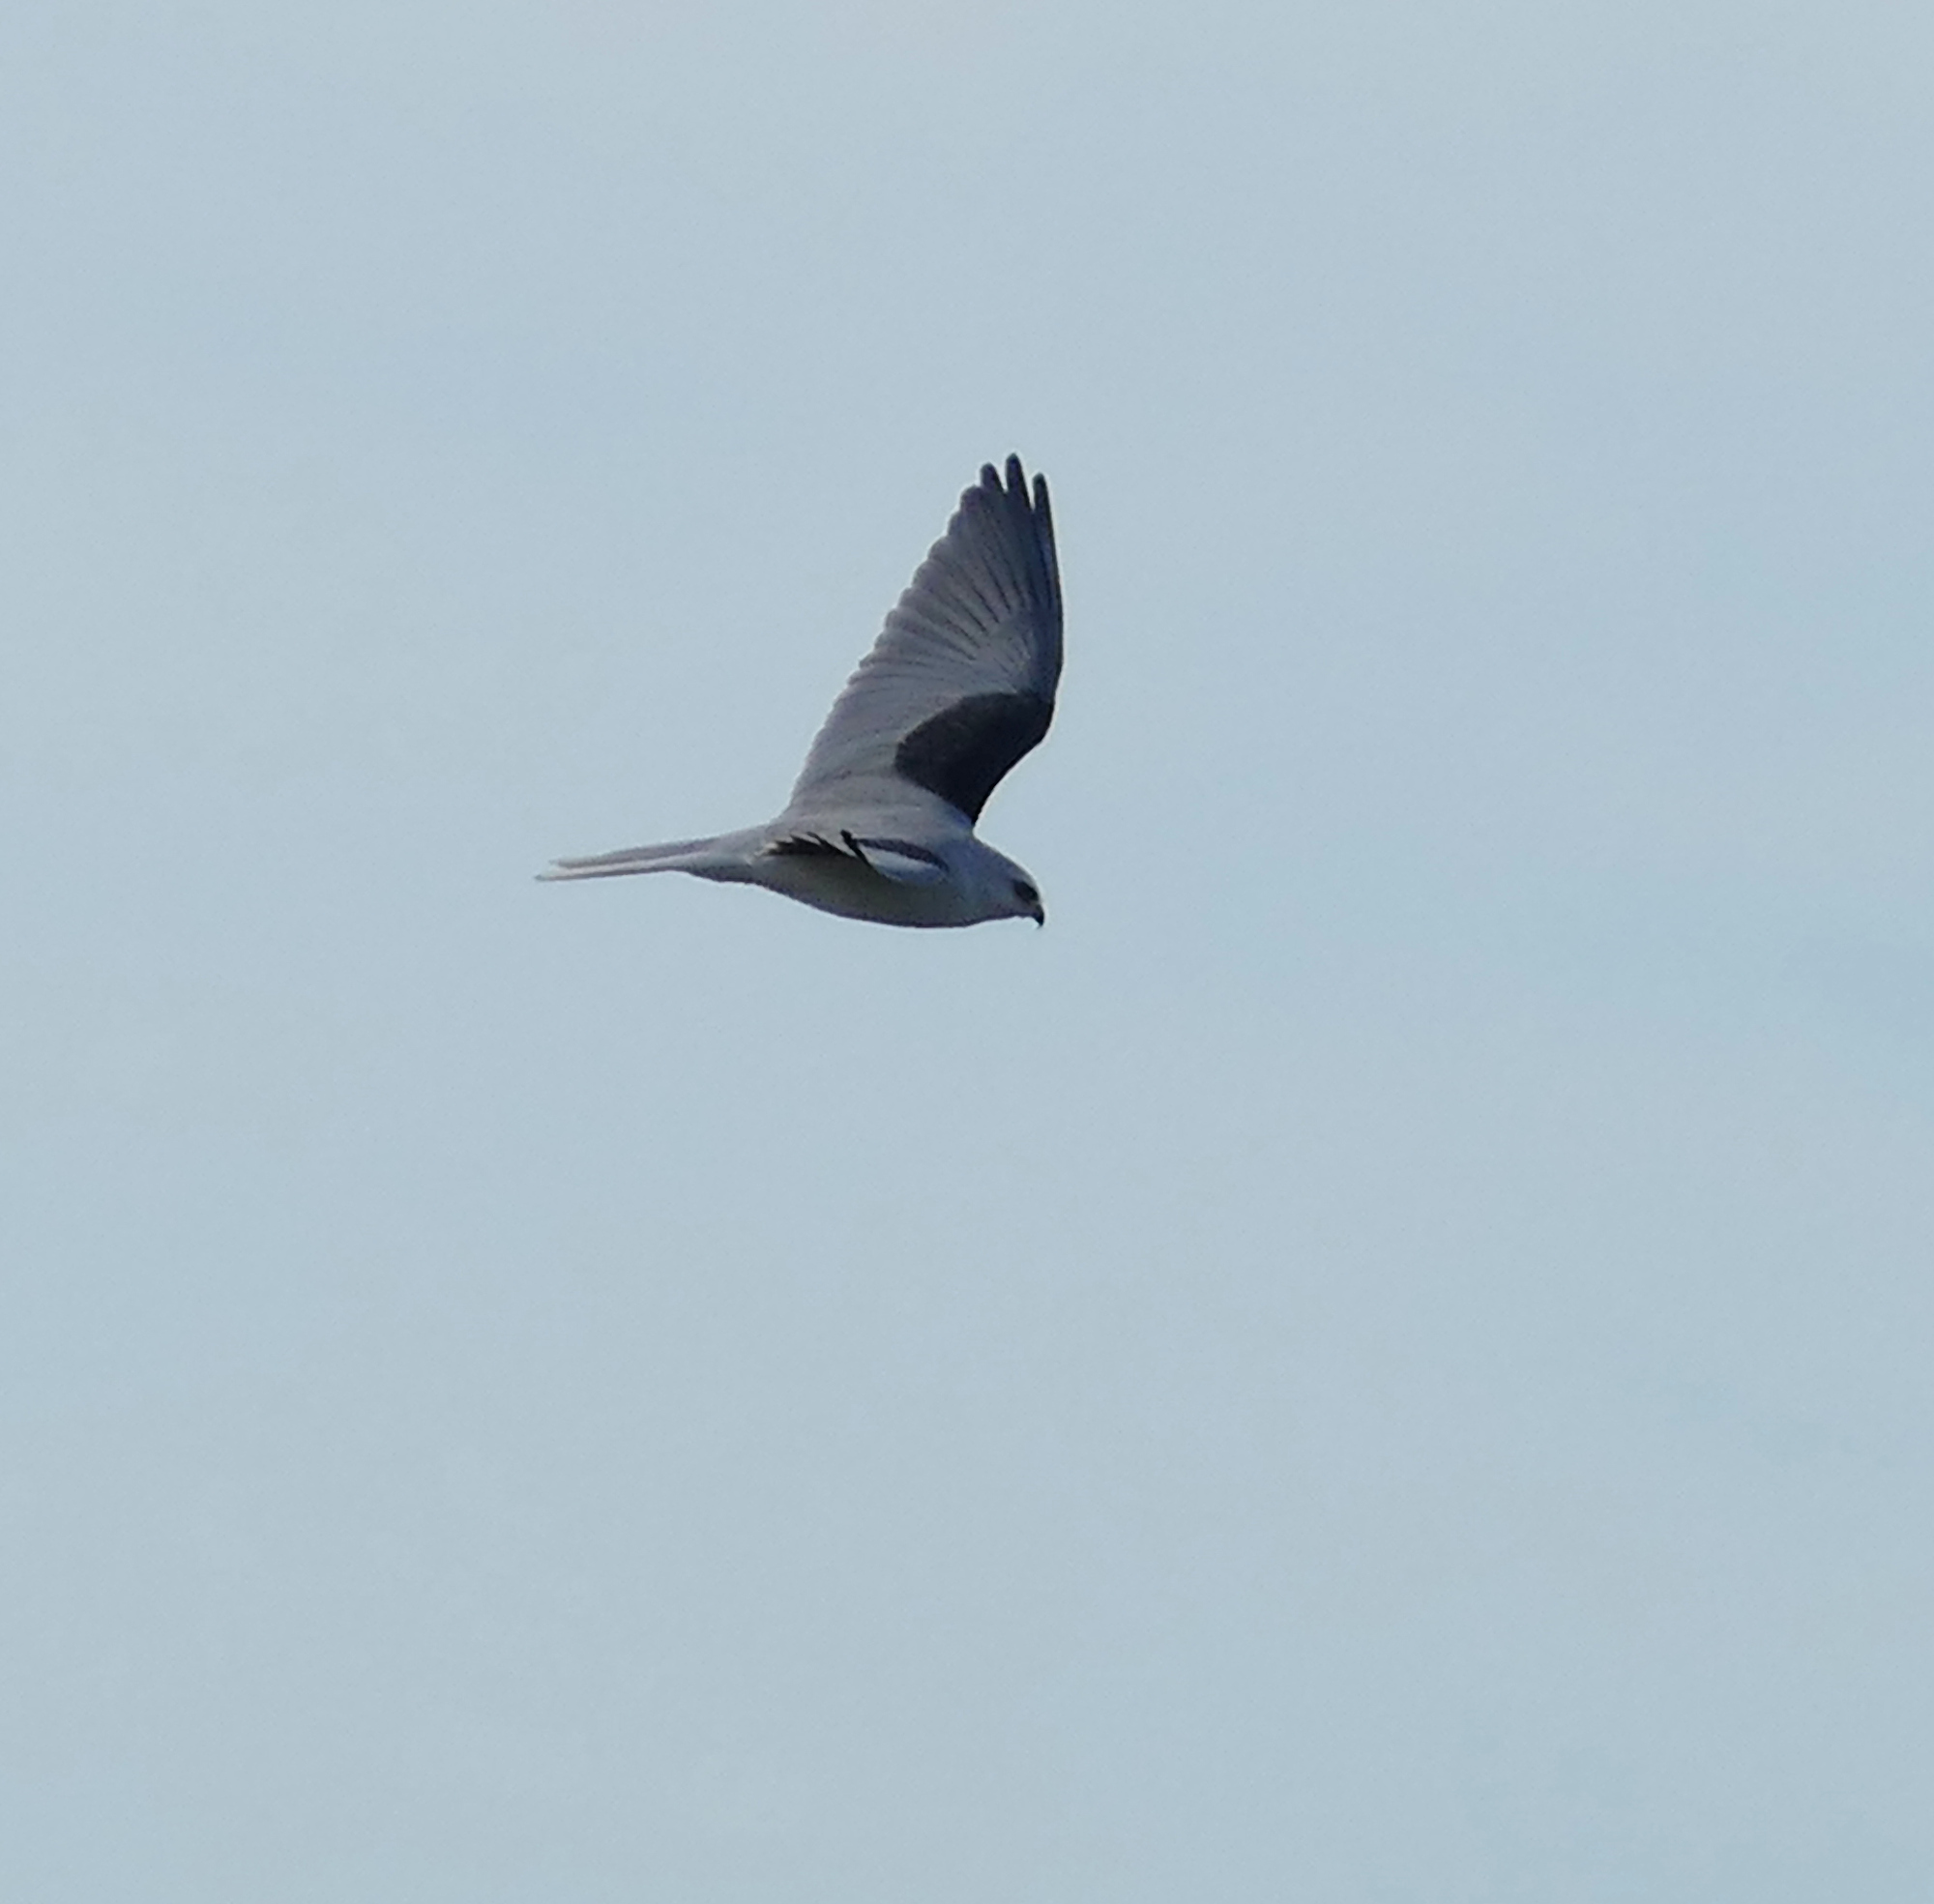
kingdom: Animalia
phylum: Chordata
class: Aves
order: Accipitriformes
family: Accipitridae
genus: Elanus
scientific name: Elanus leucurus
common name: White-tailed kite
